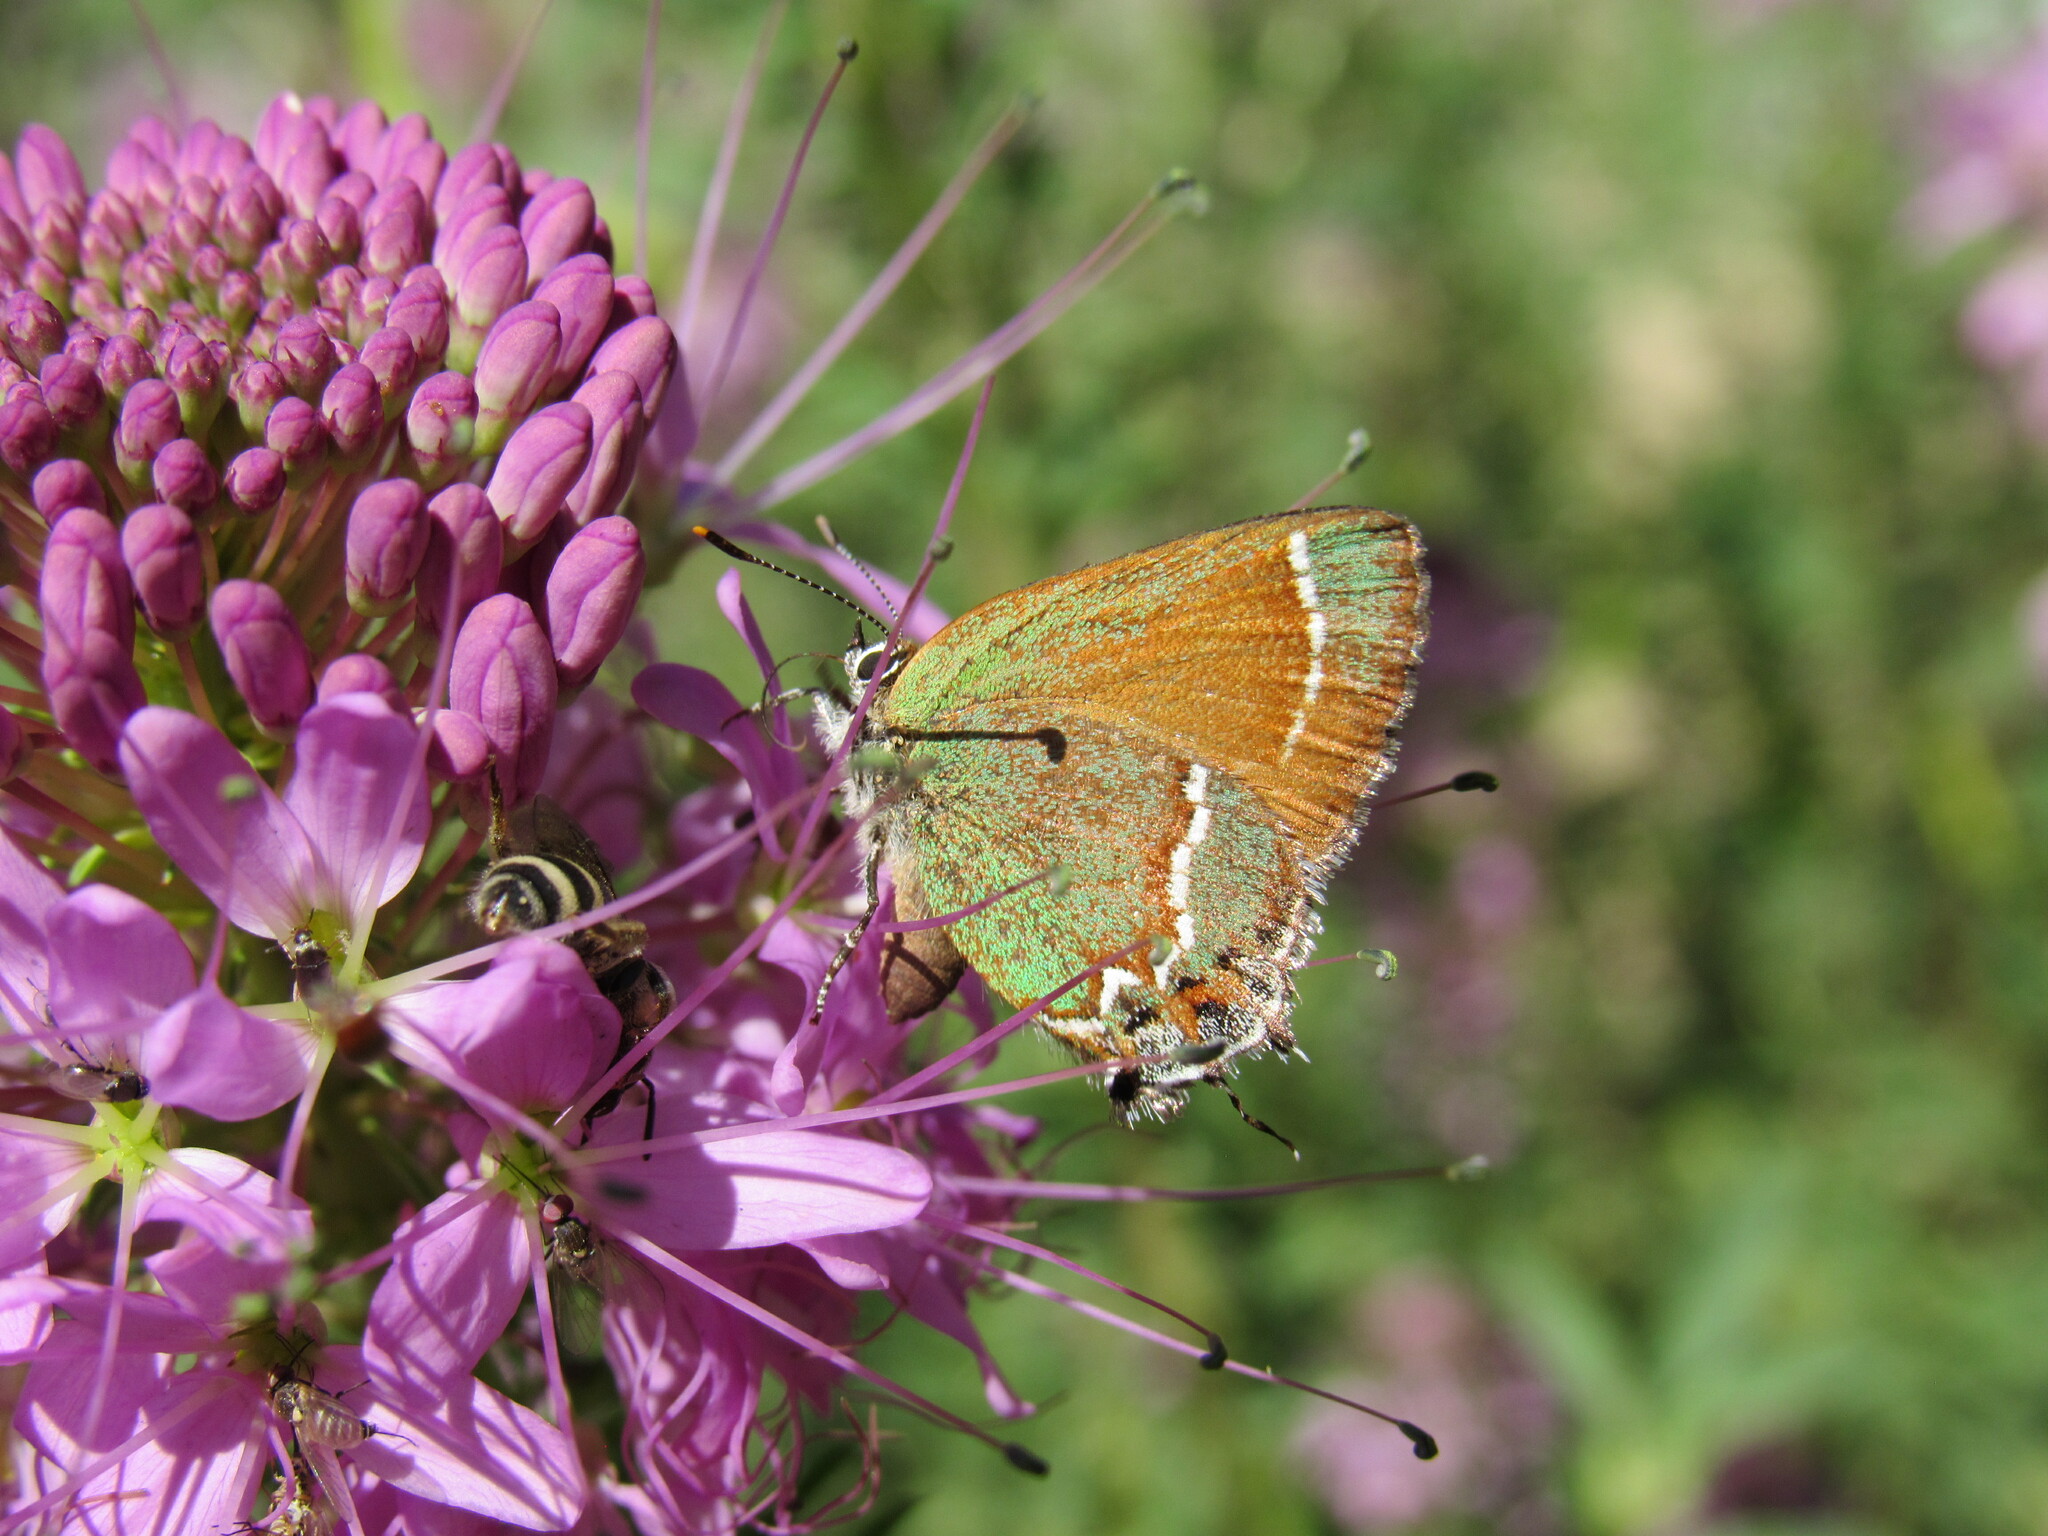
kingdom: Animalia
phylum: Arthropoda
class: Insecta
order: Lepidoptera
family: Lycaenidae
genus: Mitoura
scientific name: Mitoura gryneus
